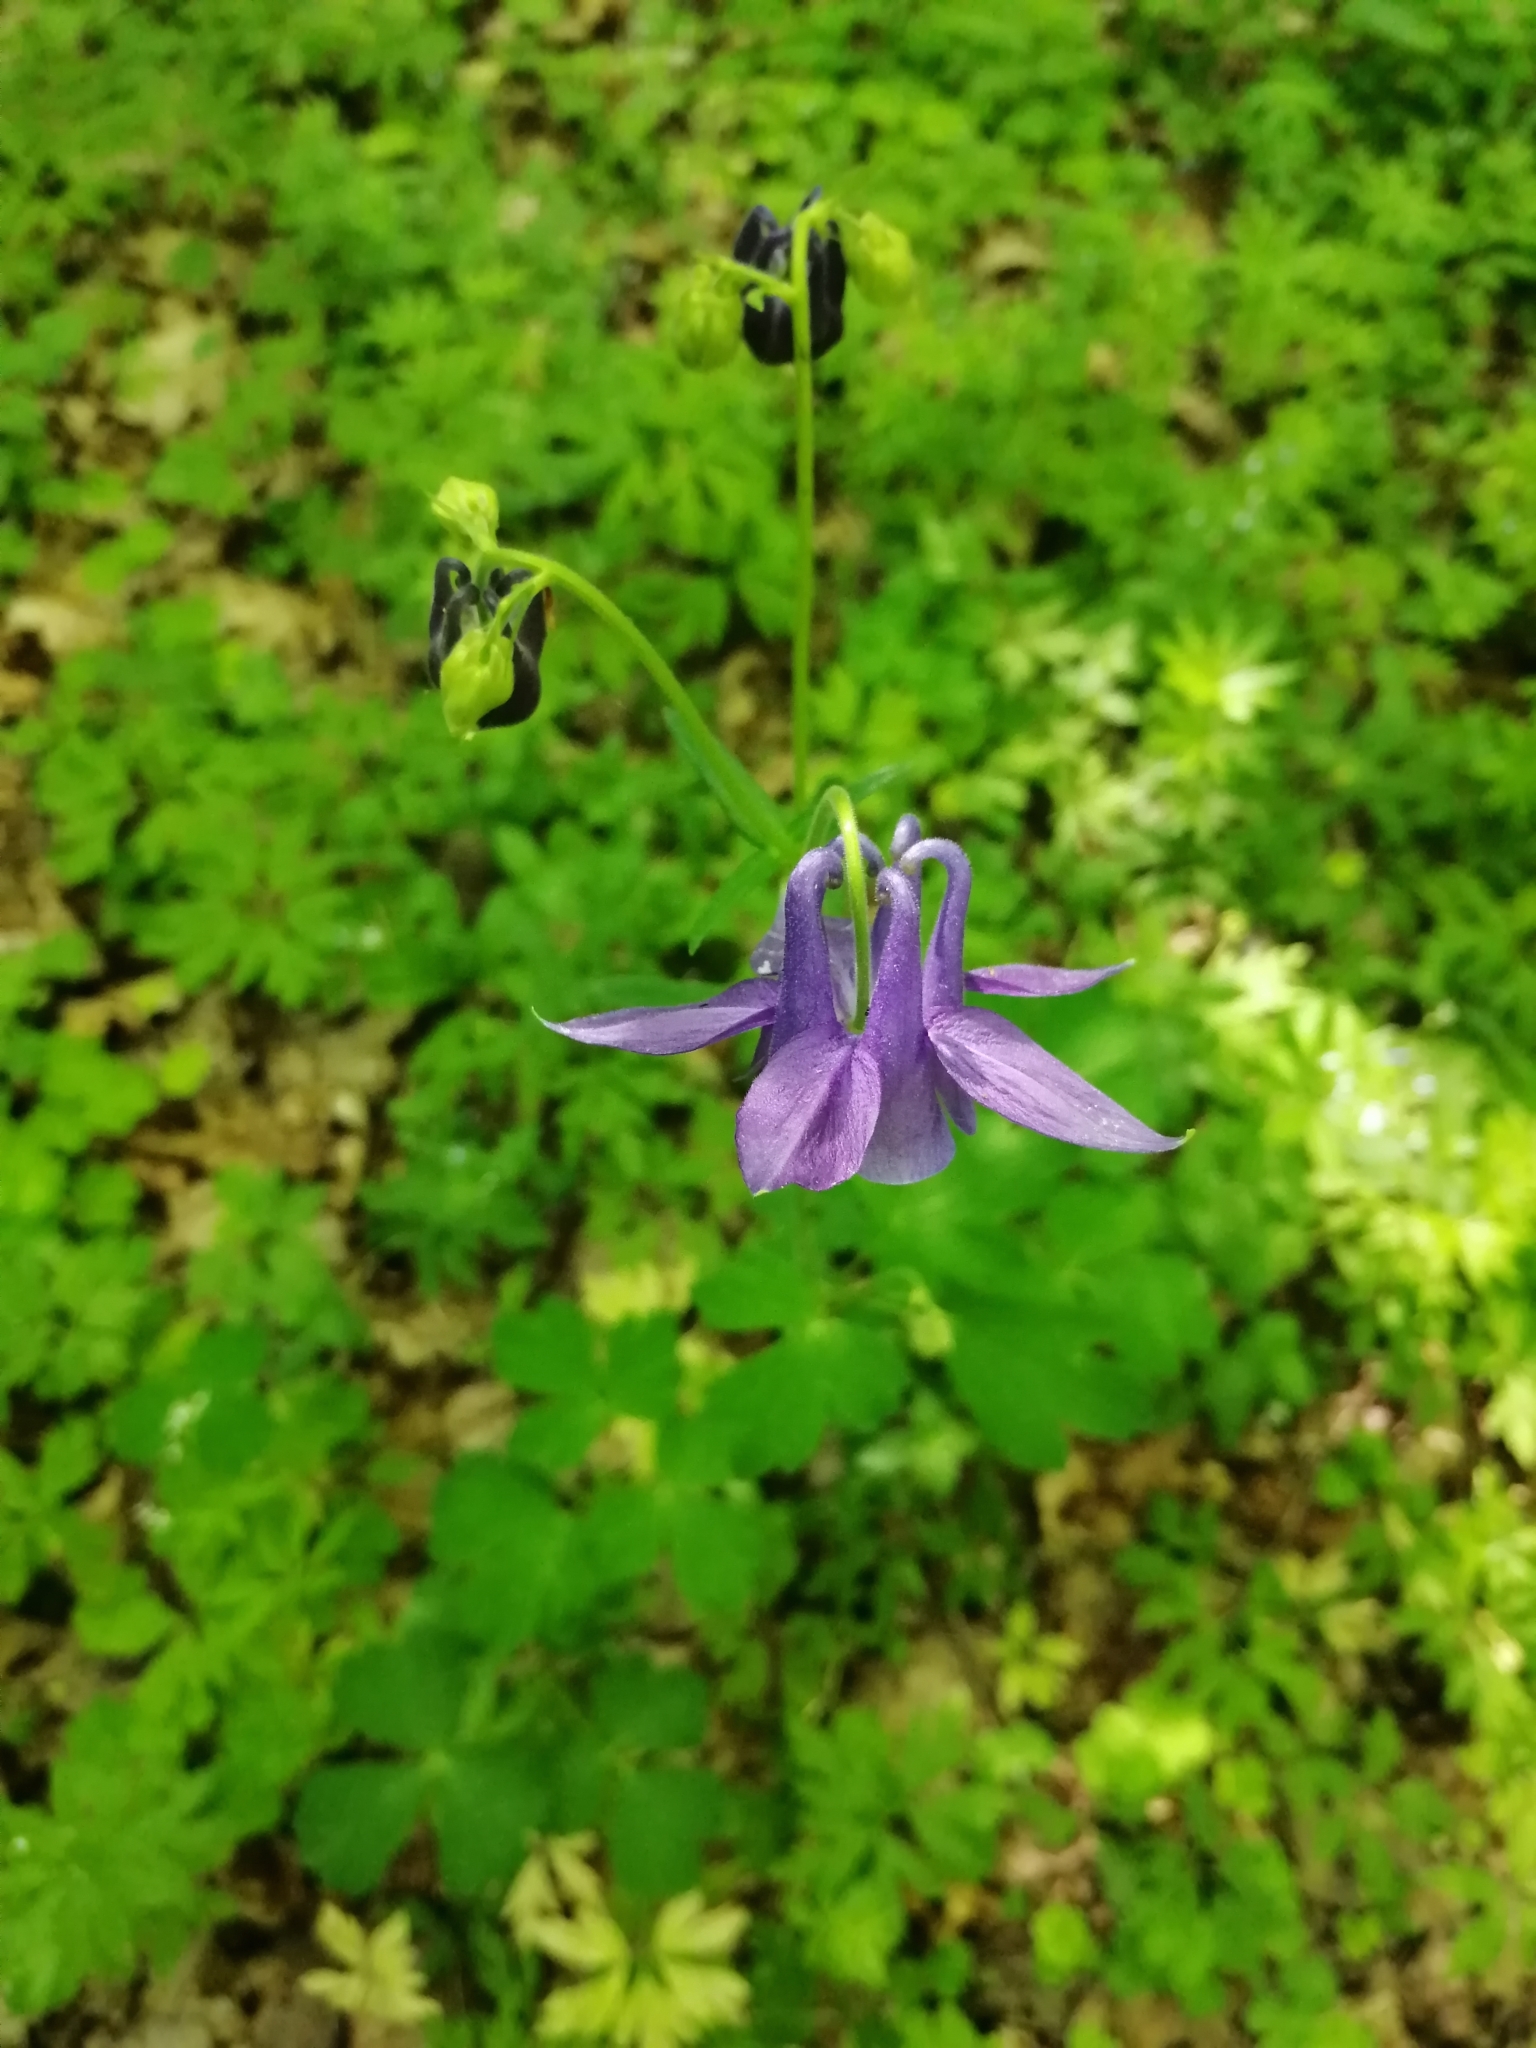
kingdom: Plantae
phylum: Tracheophyta
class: Magnoliopsida
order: Ranunculales
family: Ranunculaceae
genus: Aquilegia
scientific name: Aquilegia vulgaris
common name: Columbine
